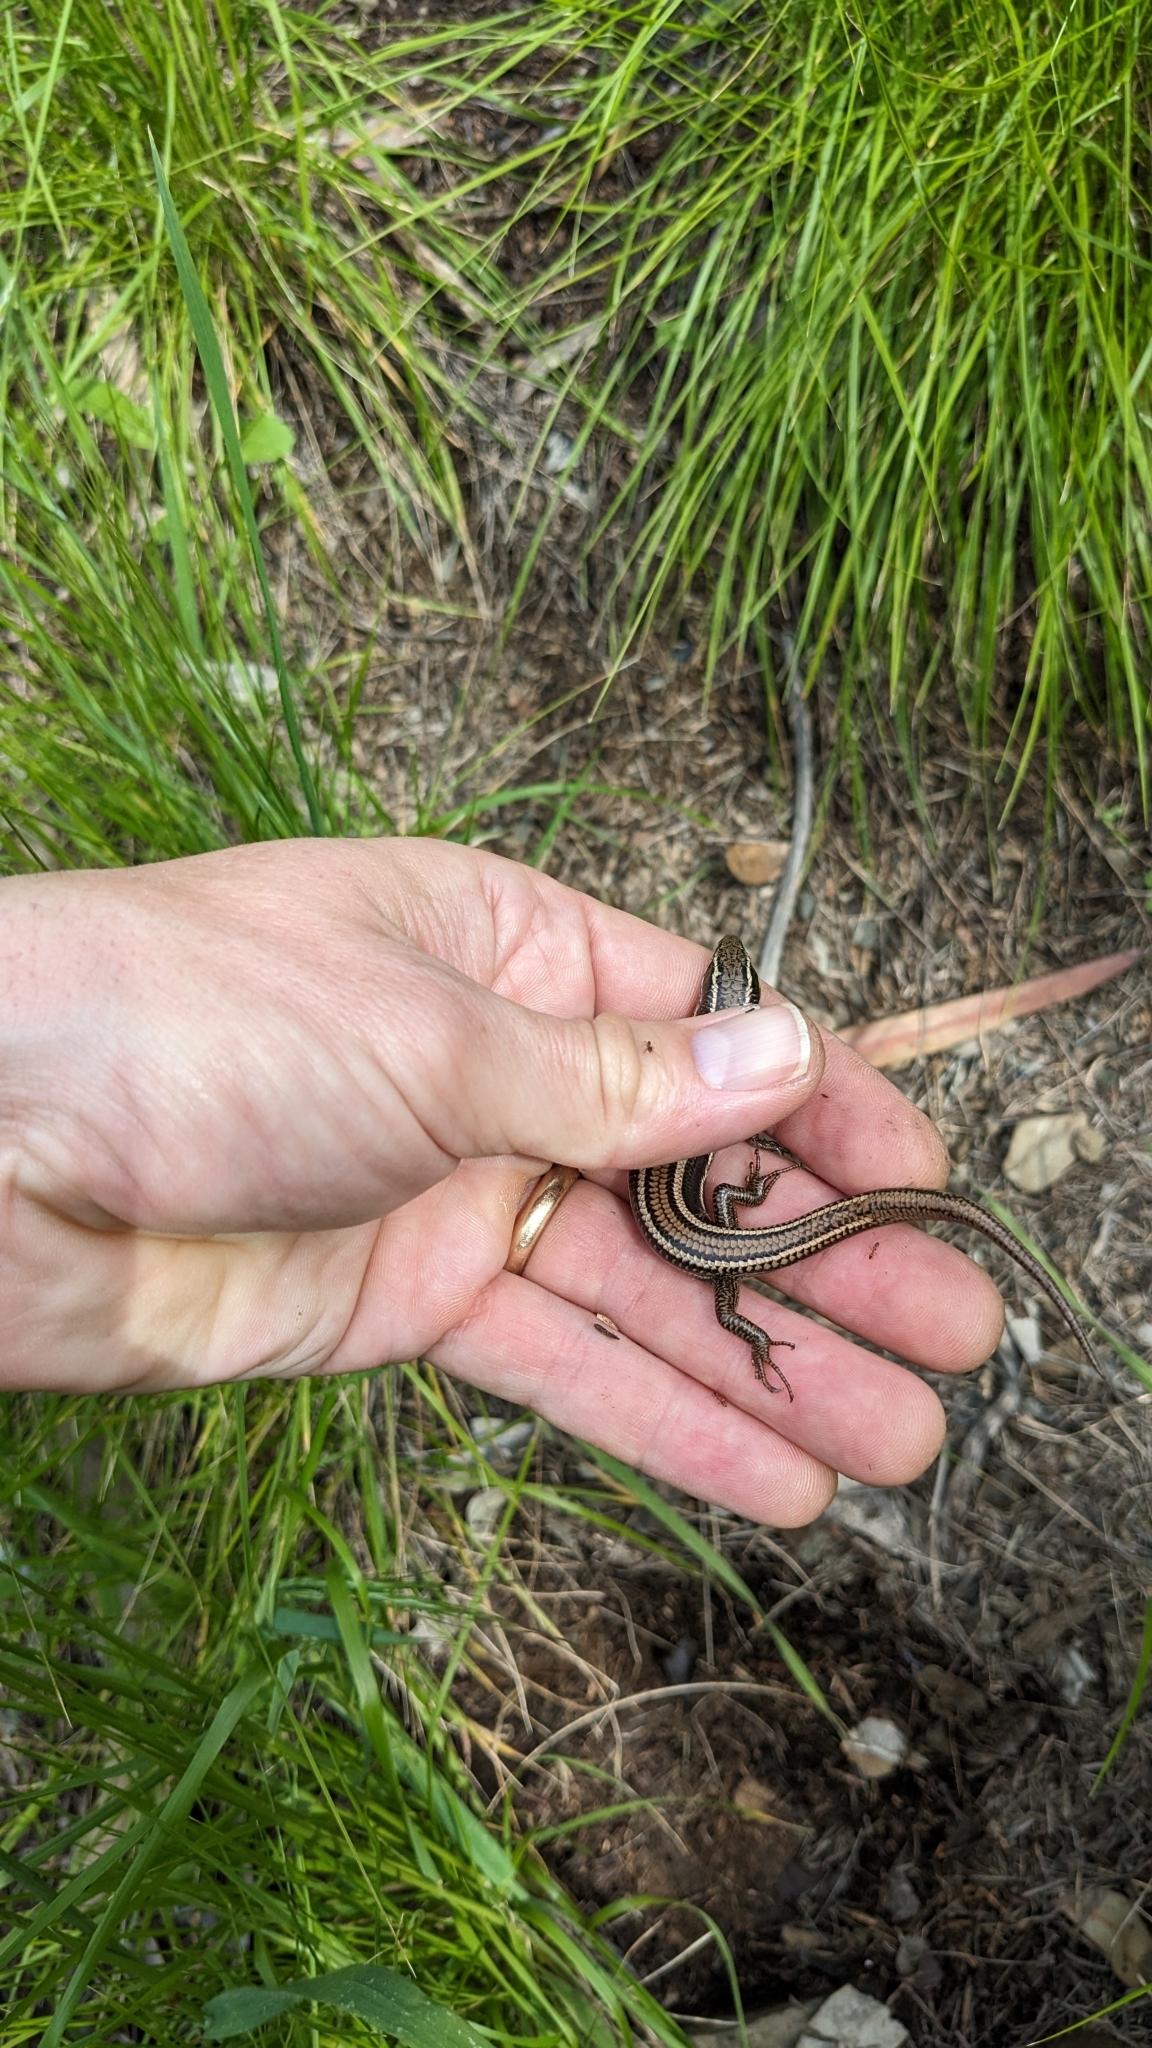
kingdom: Animalia
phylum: Chordata
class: Squamata
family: Scincidae
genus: Plestiodon
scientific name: Plestiodon skiltonianus
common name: Coronado island skink [interparietalis]
